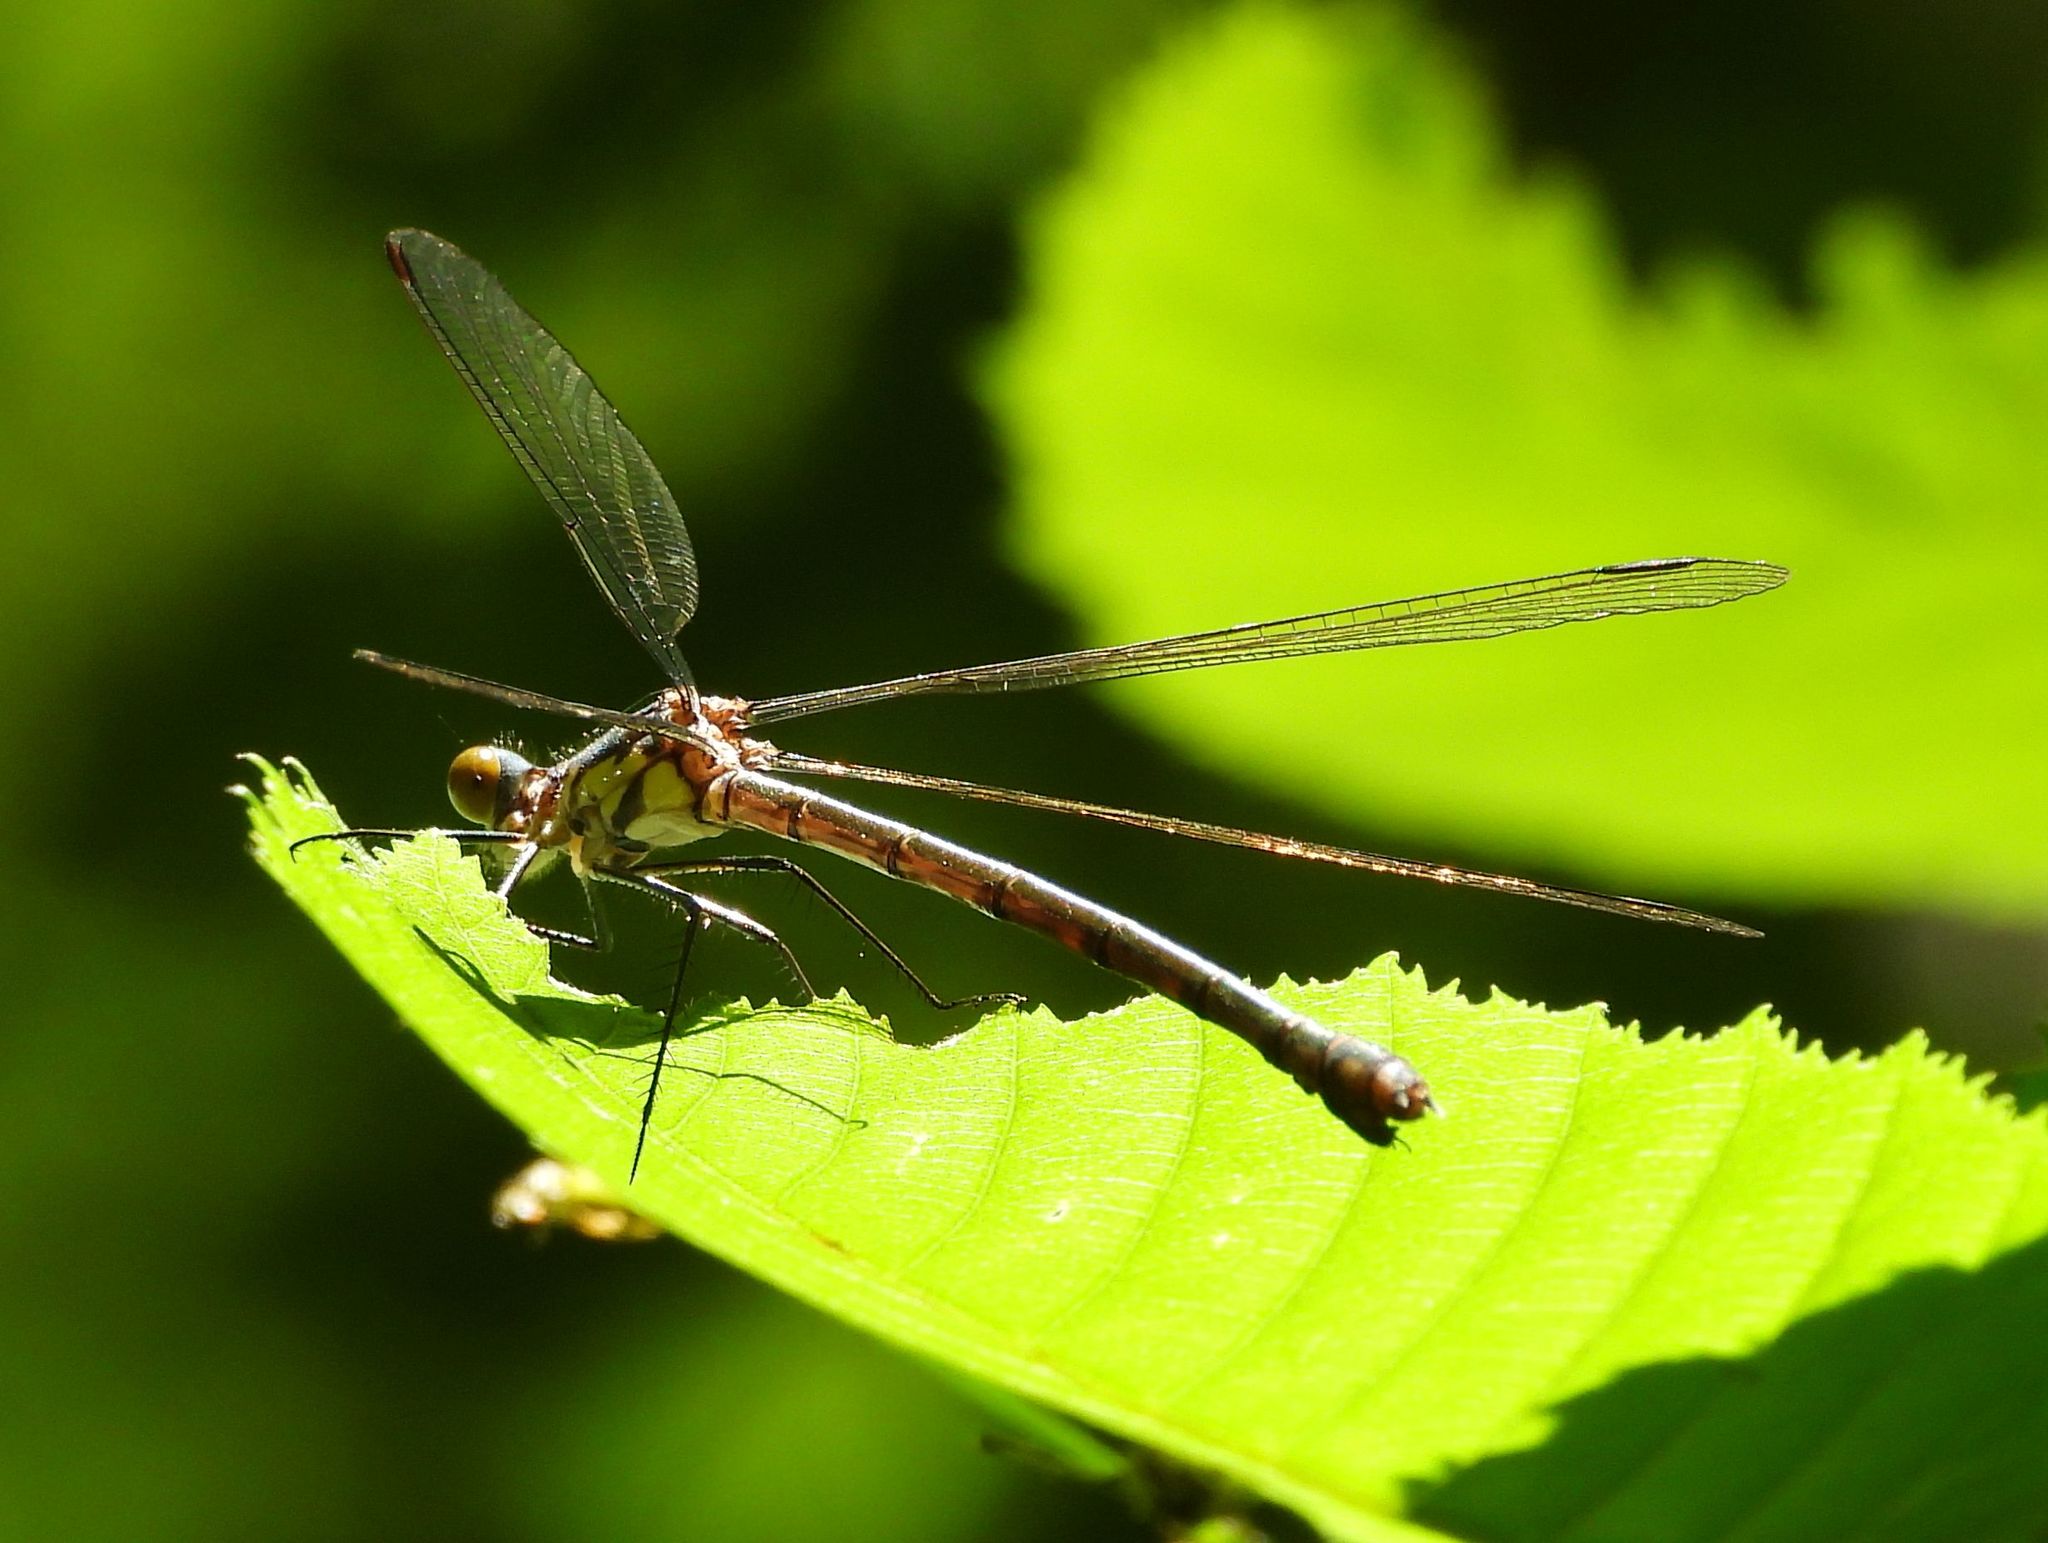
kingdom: Animalia
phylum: Arthropoda
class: Insecta
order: Odonata
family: Lestidae
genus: Lestes
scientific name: Lestes eurinus
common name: Amber-winged spreadwing
